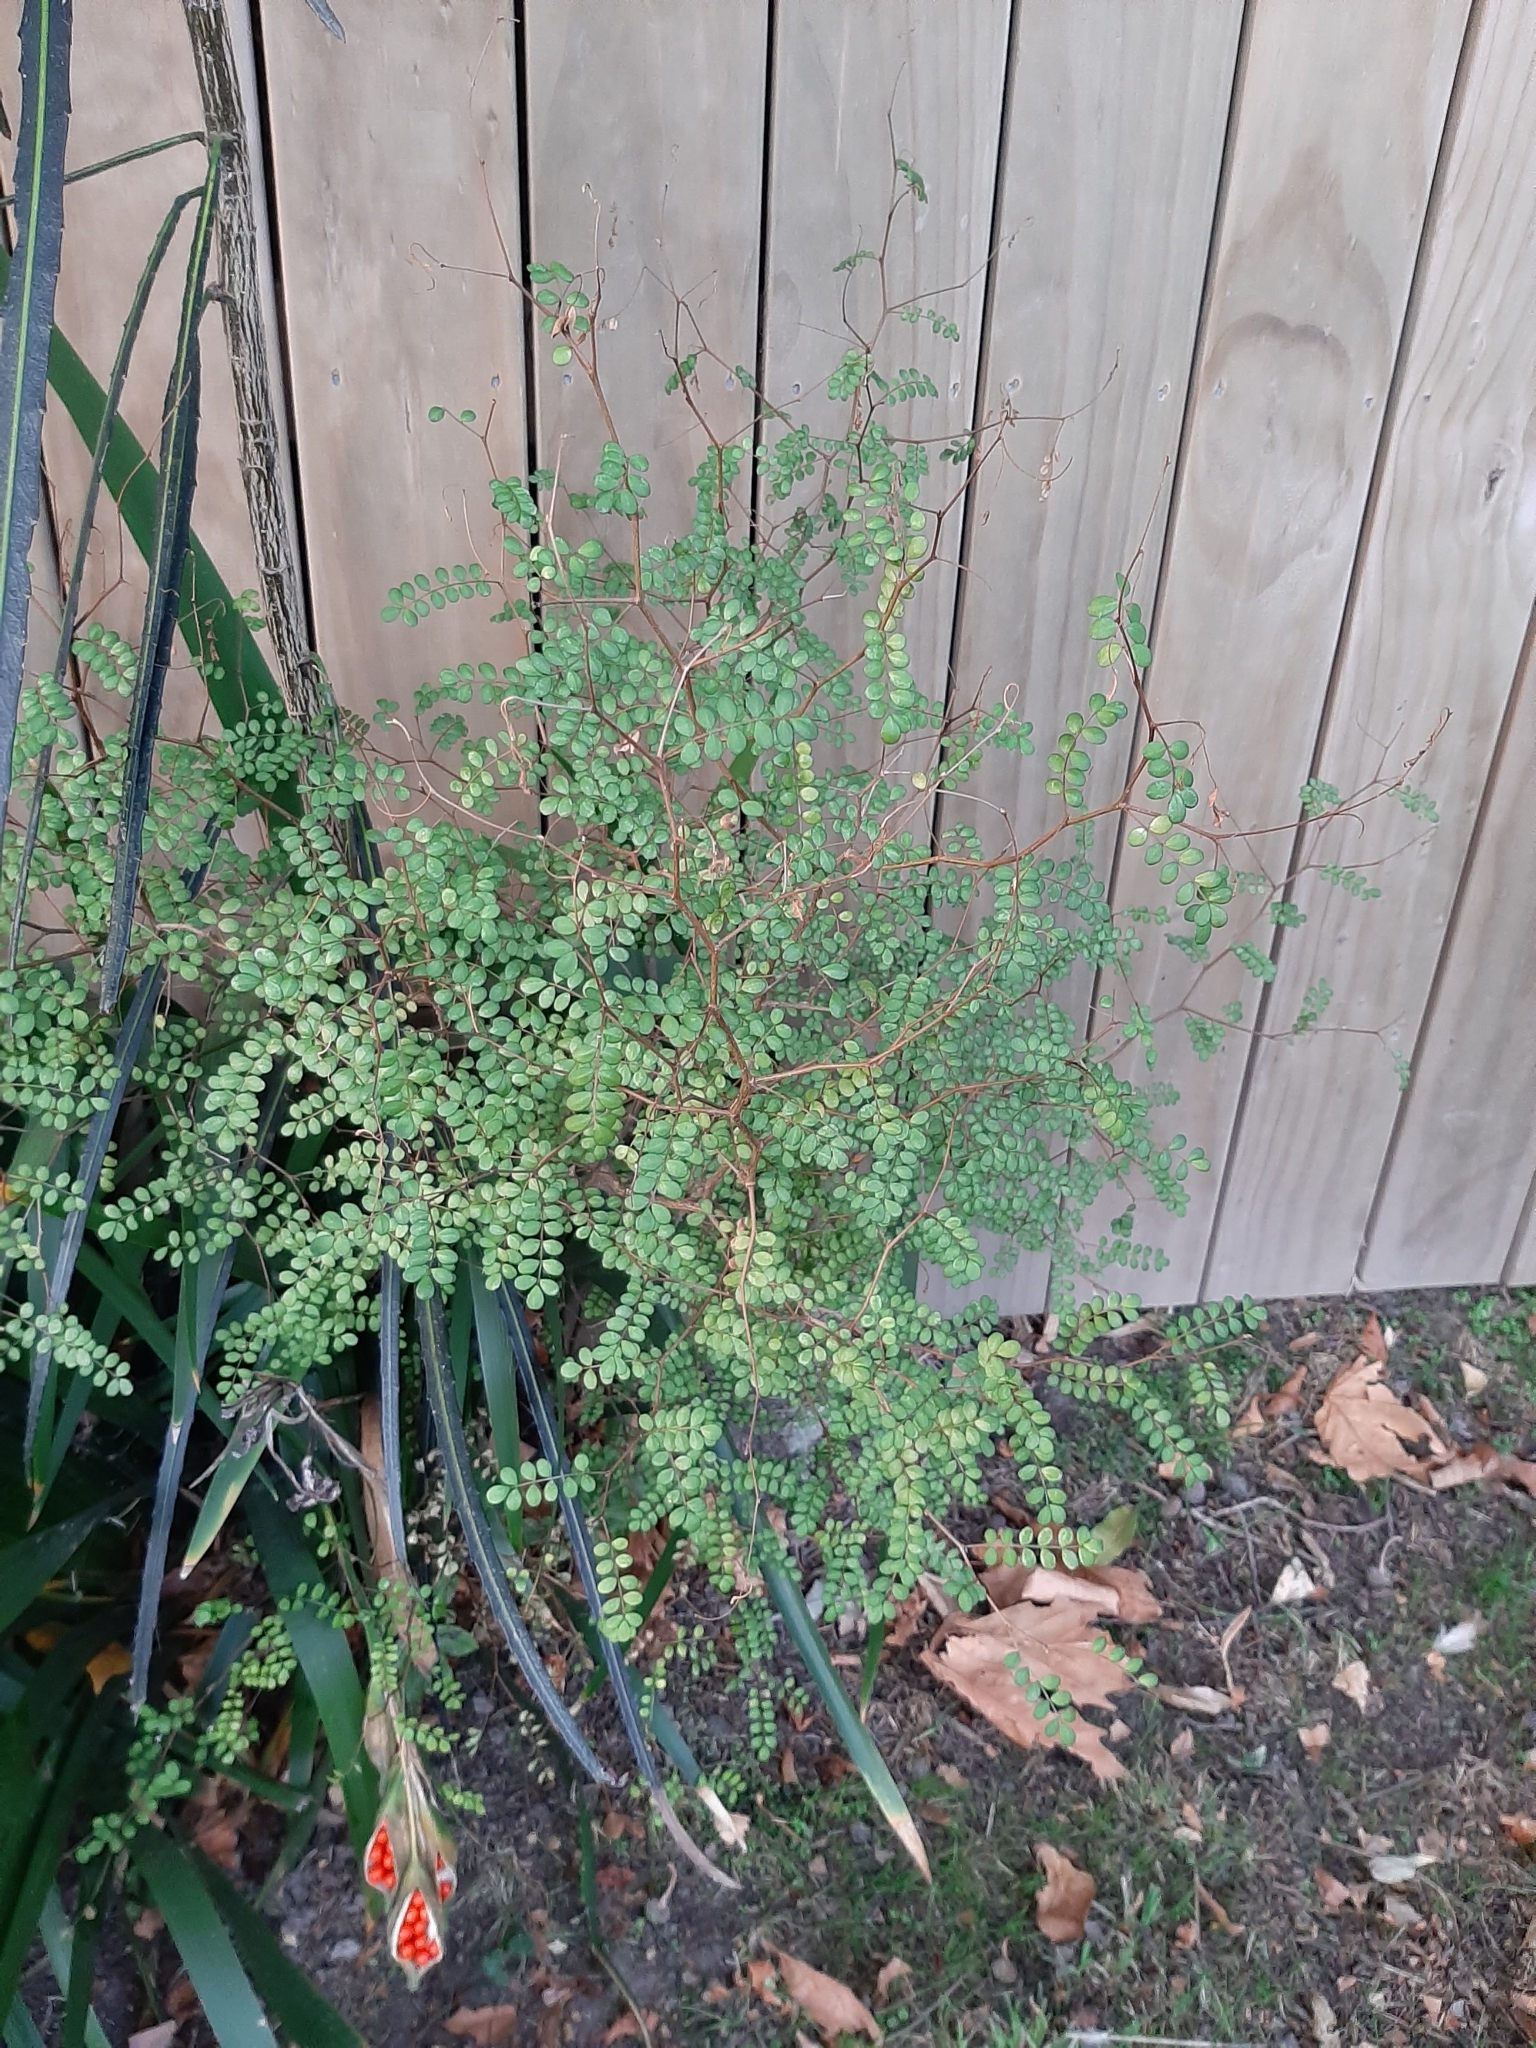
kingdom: Plantae
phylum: Tracheophyta
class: Magnoliopsida
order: Fabales
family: Fabaceae
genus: Sophora
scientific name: Sophora microphylla
